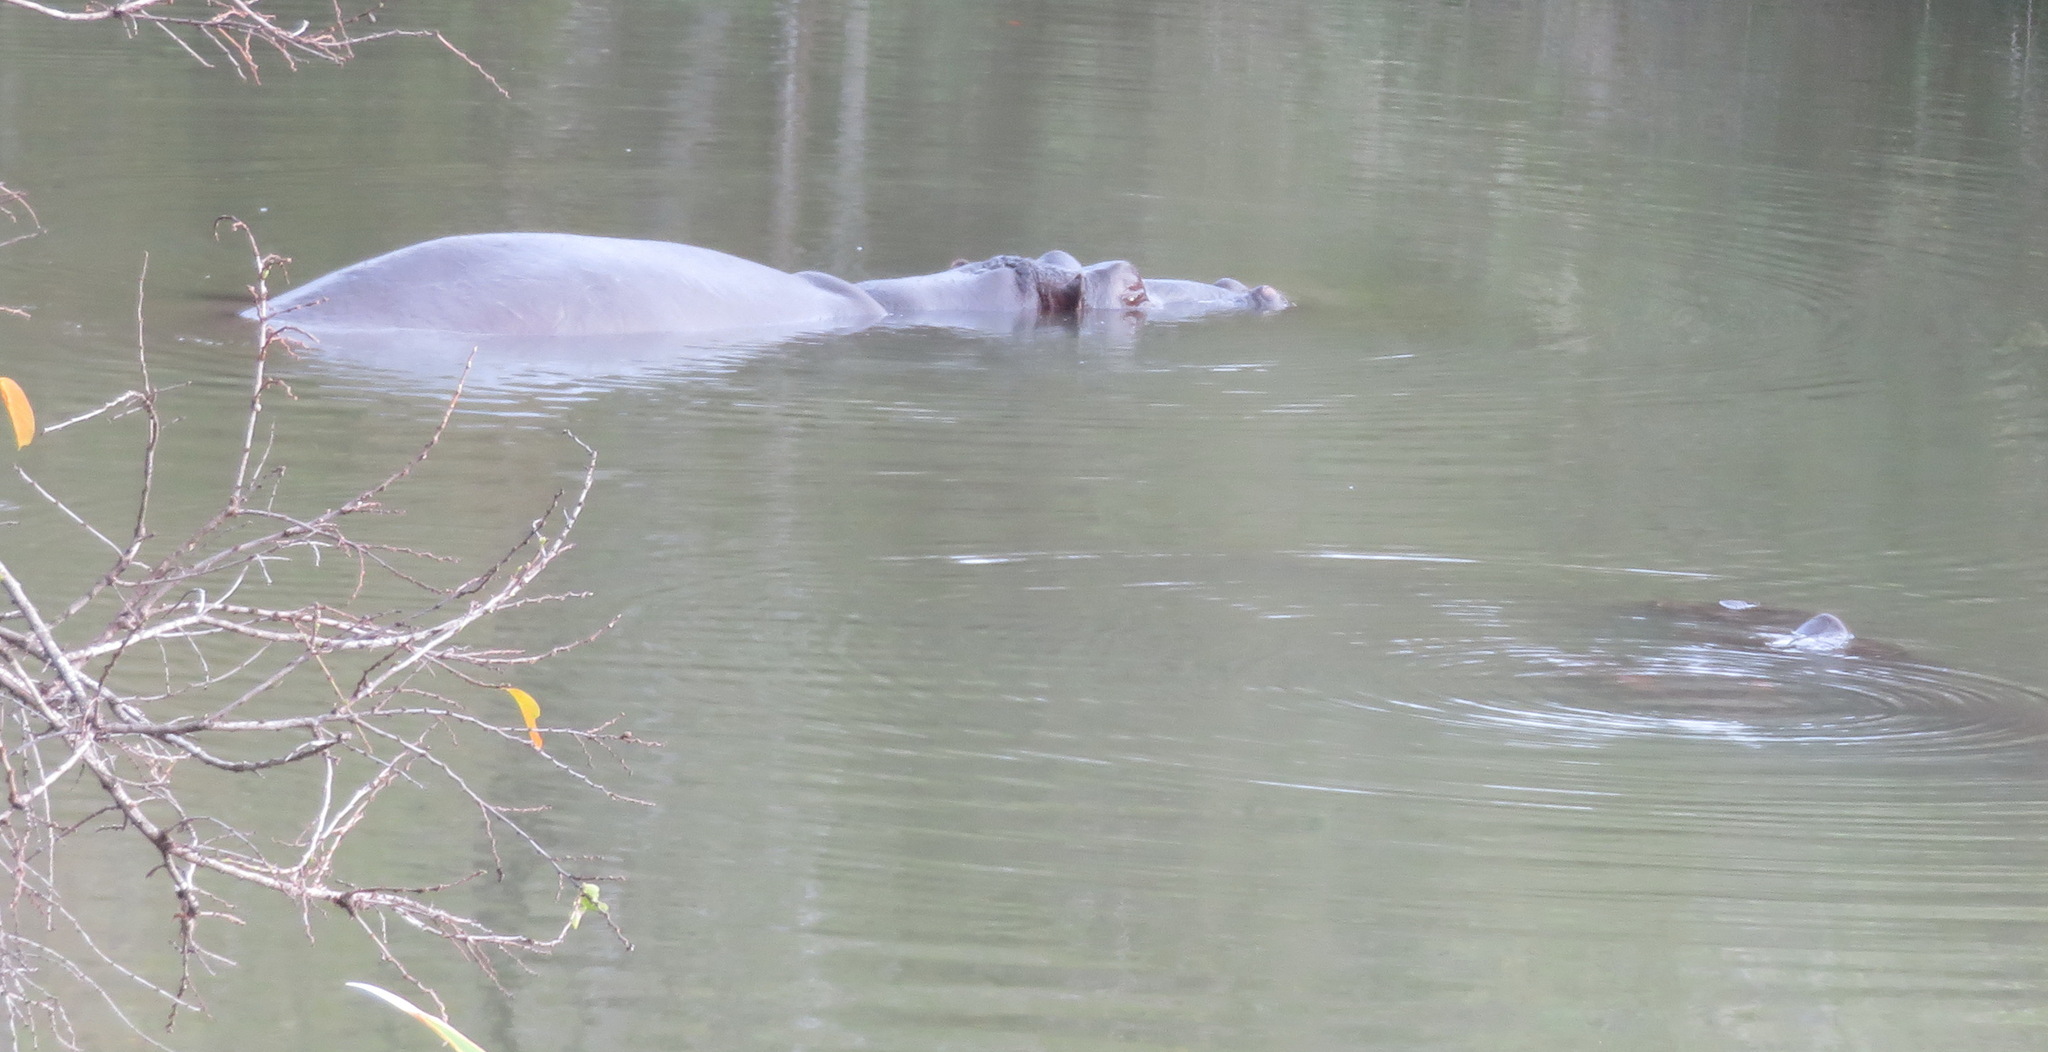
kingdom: Animalia
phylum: Chordata
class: Mammalia
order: Artiodactyla
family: Hippopotamidae
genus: Hippopotamus
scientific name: Hippopotamus amphibius
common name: Common hippopotamus
